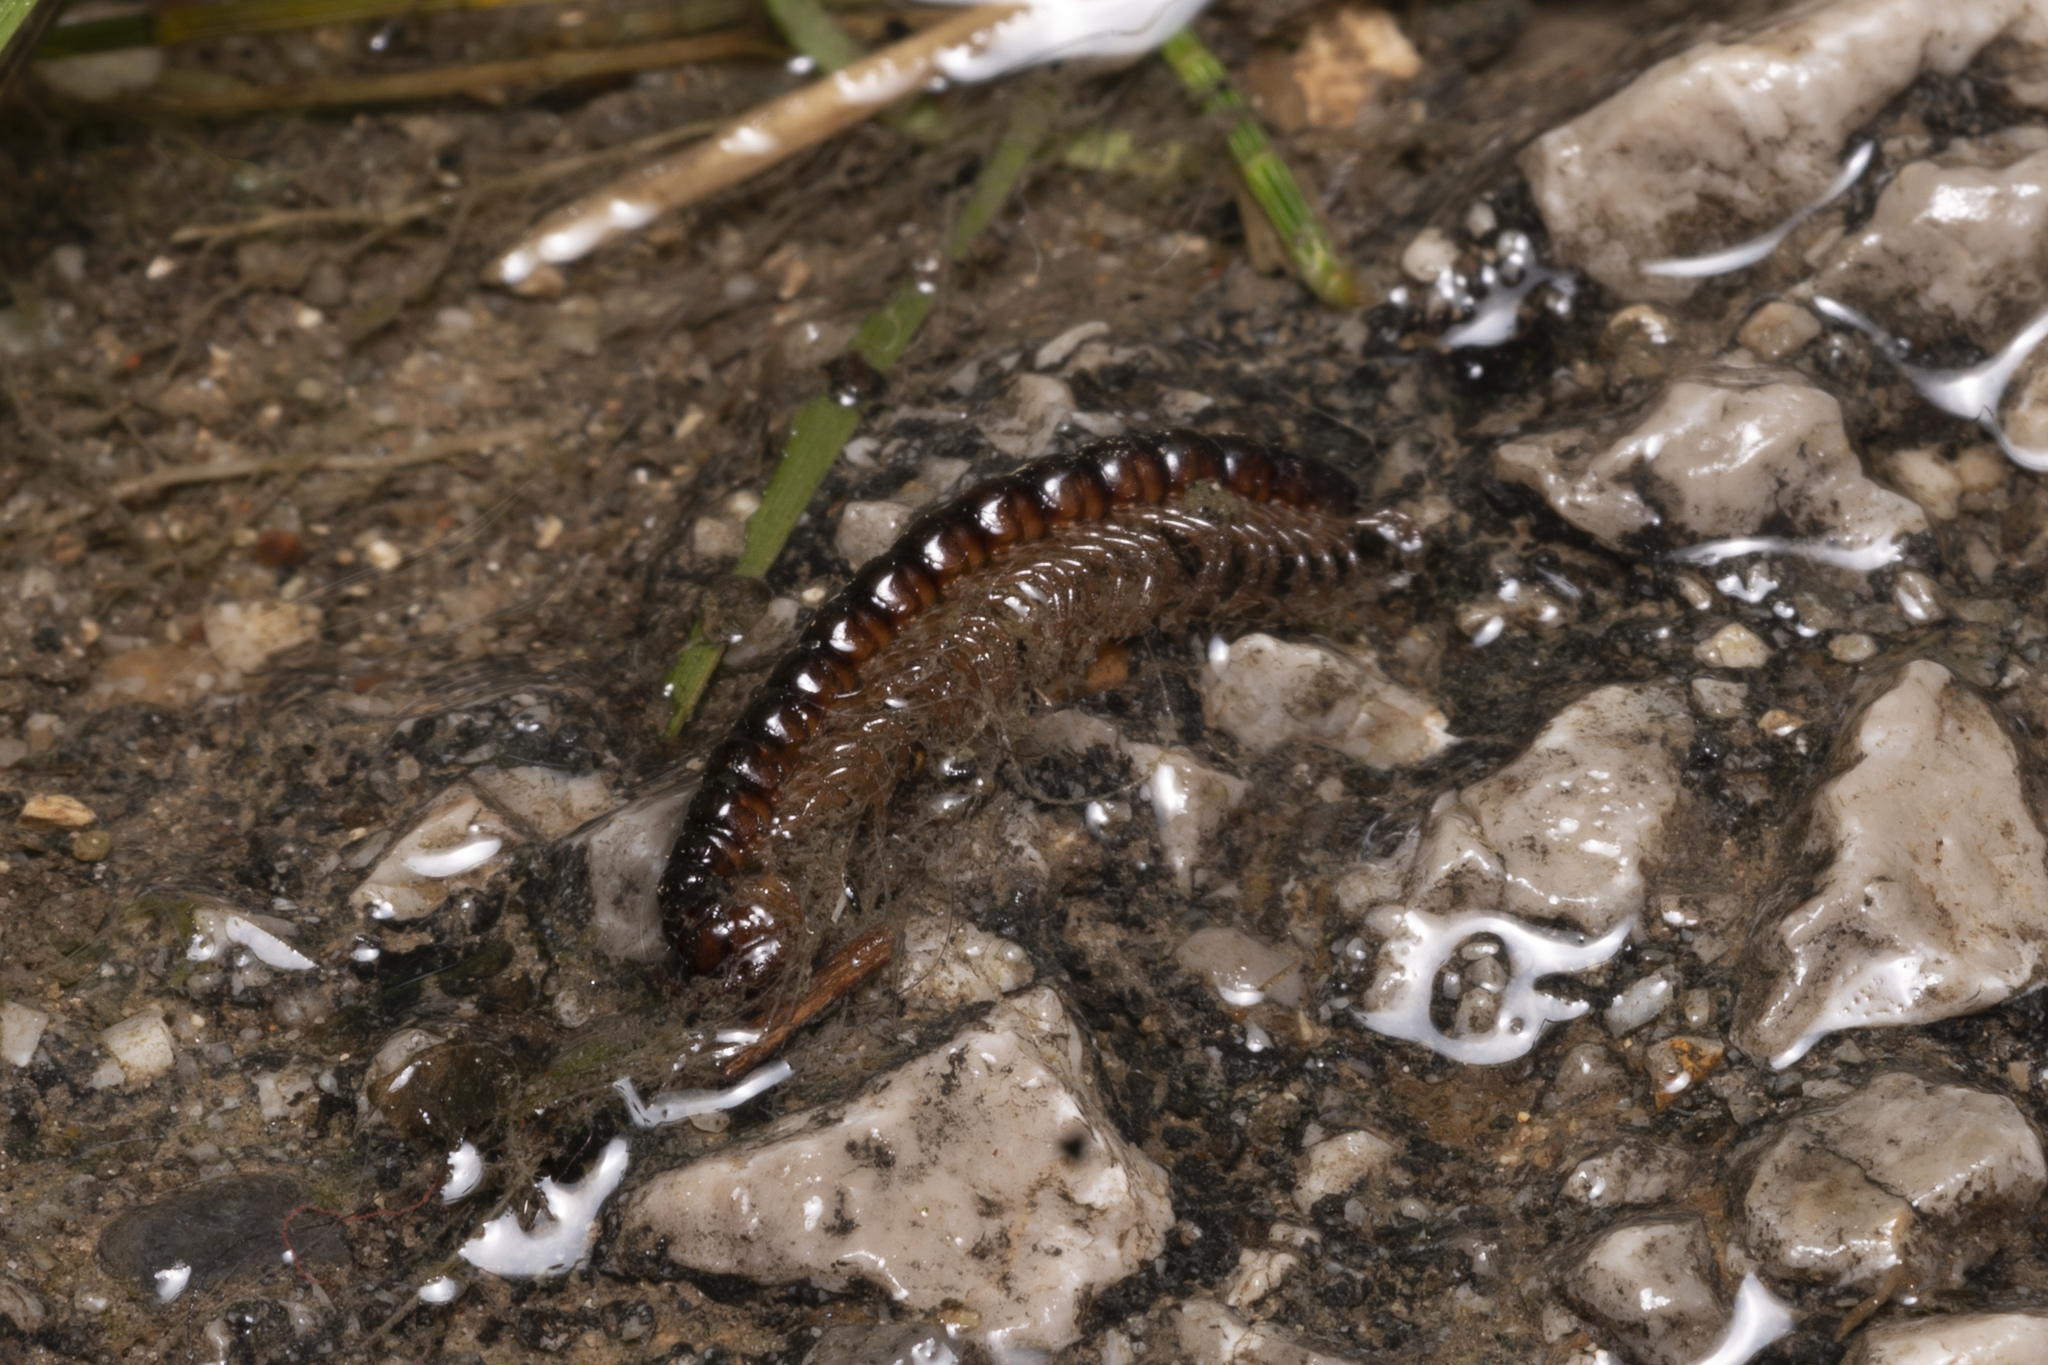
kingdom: Animalia
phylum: Arthropoda
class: Diplopoda
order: Polydesmida
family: Paradoxosomatidae
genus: Tetrarthrosoma
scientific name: Tetrarthrosoma pallidicephalum
